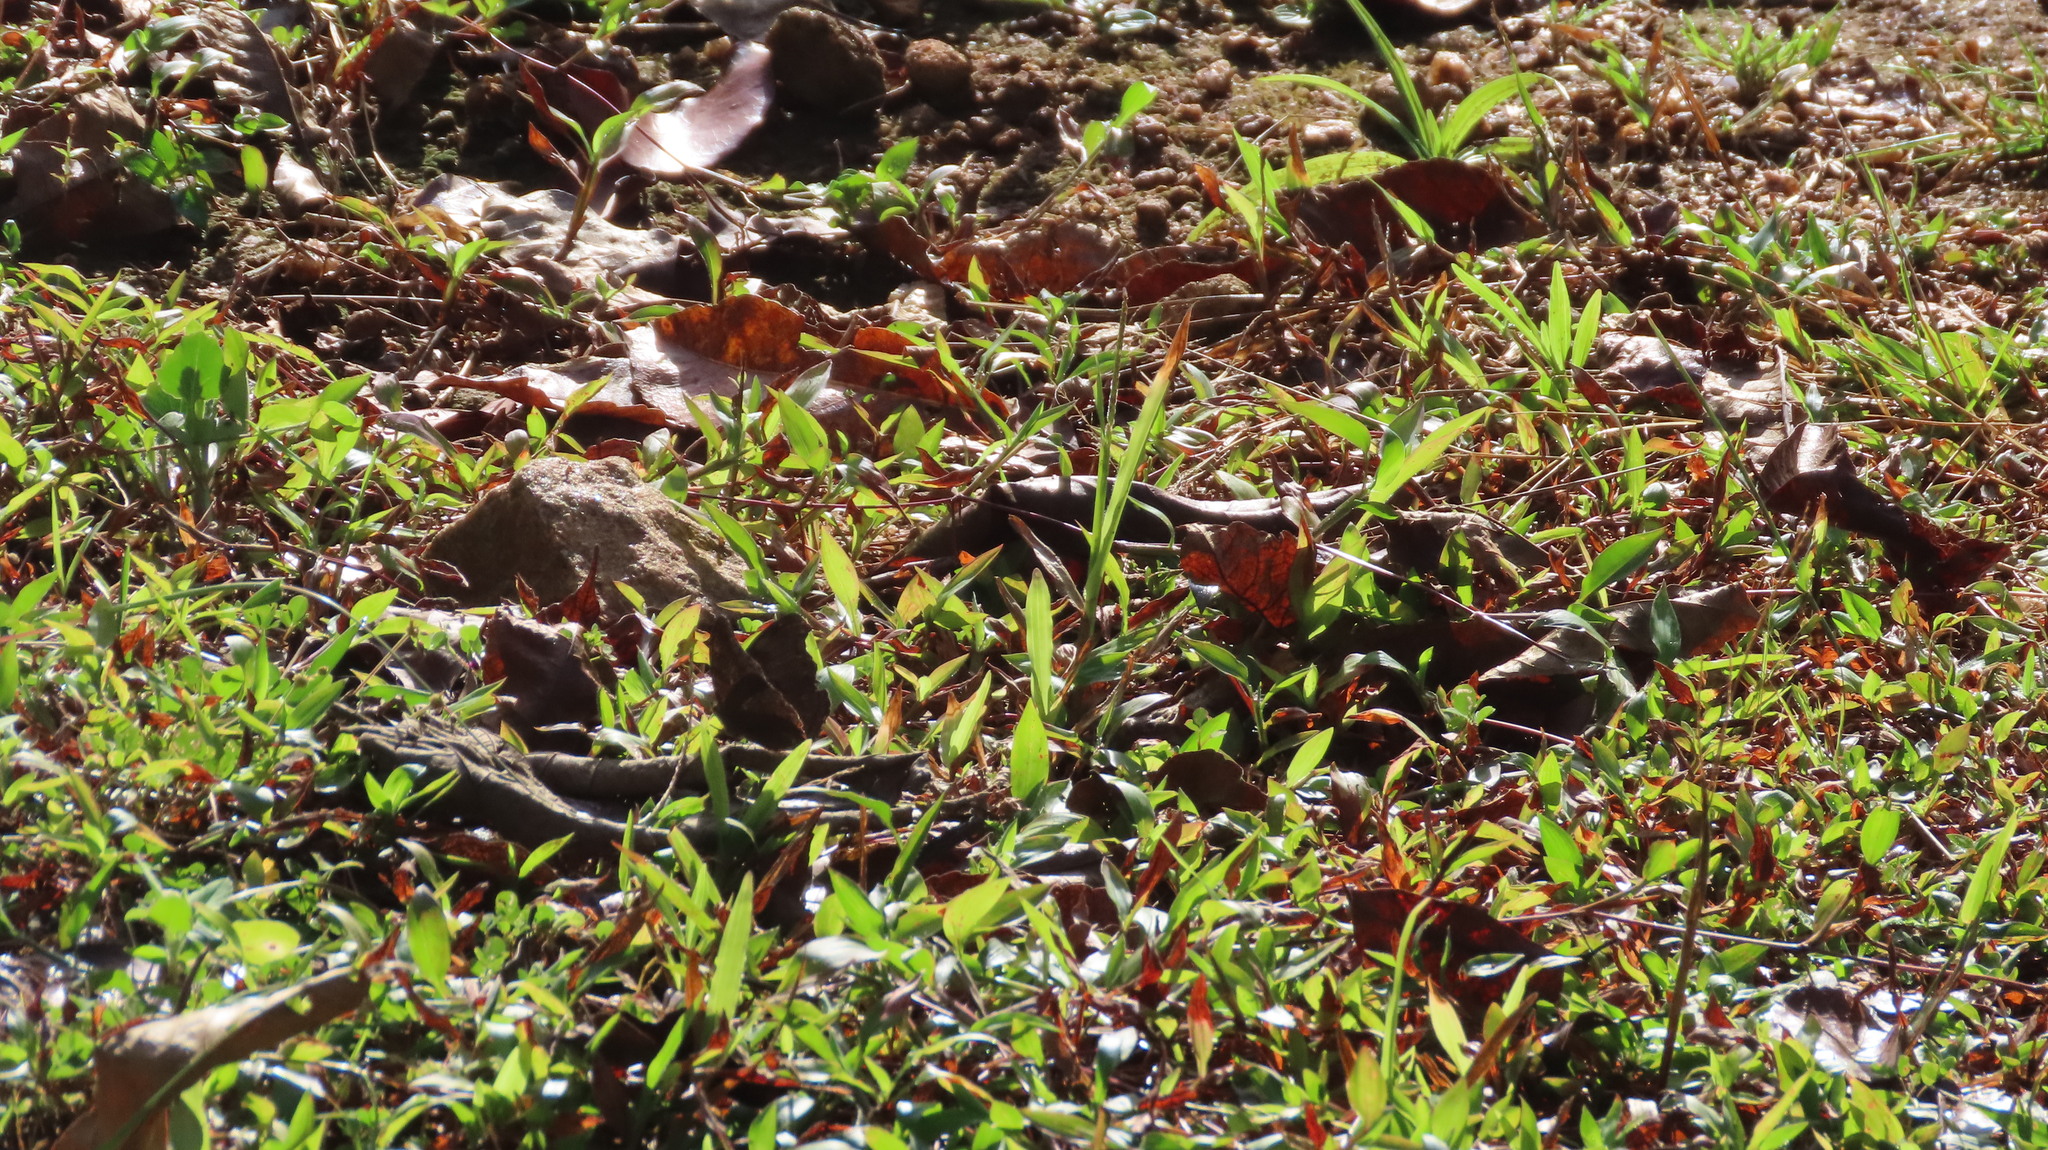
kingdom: Animalia
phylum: Arthropoda
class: Insecta
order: Lepidoptera
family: Nymphalidae
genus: Junonia
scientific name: Junonia iphita
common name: Chocolate pansy
